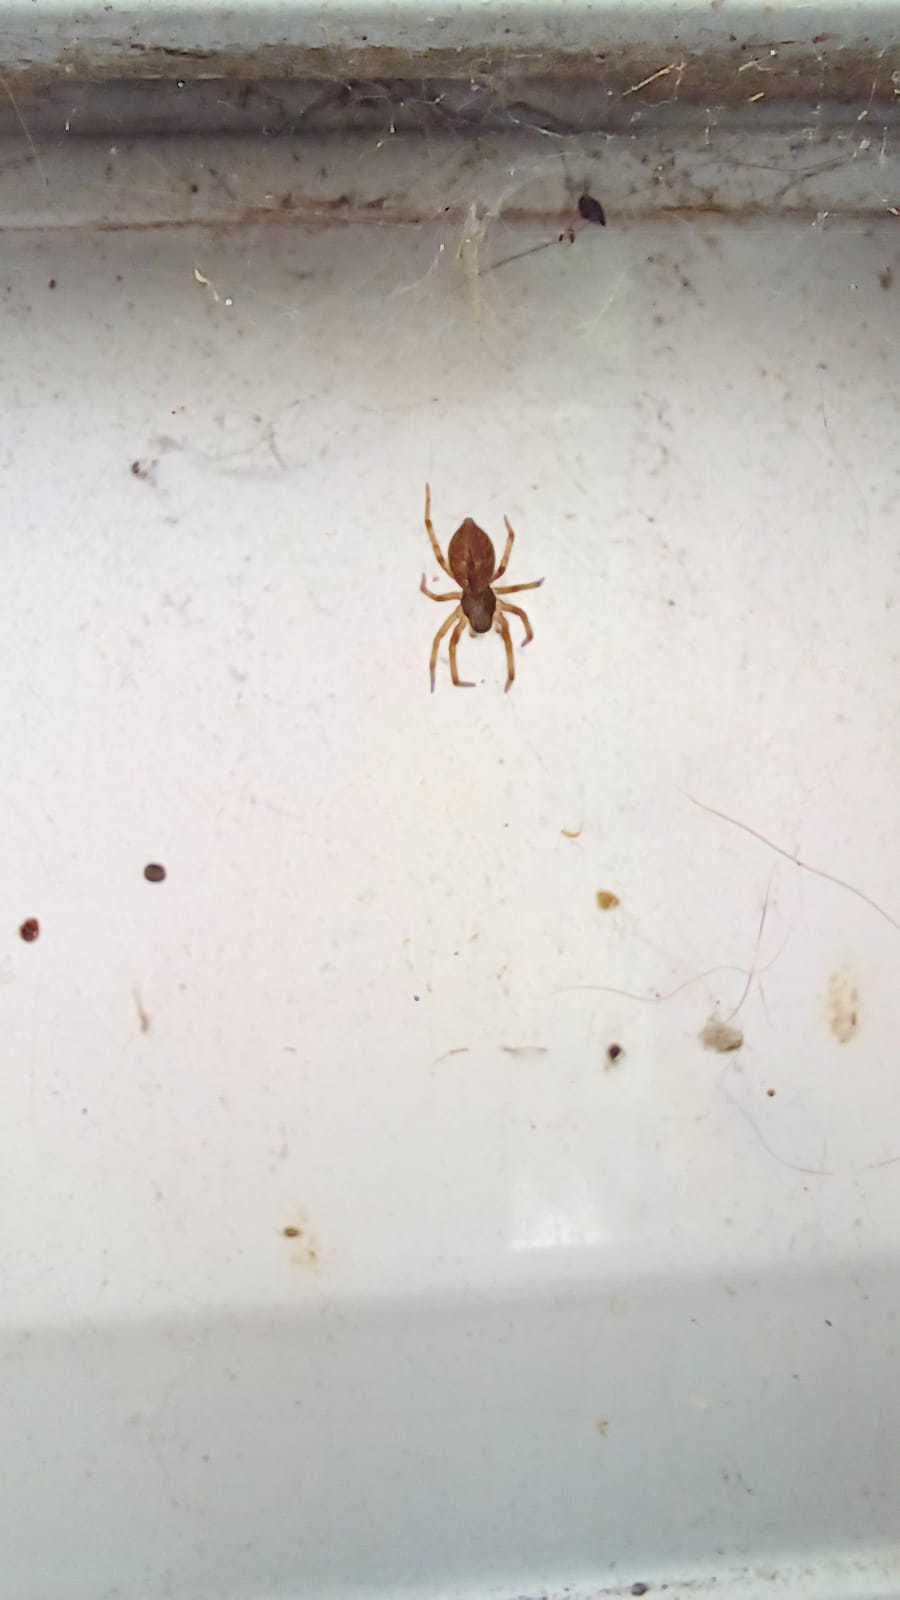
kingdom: Animalia
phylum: Arthropoda
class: Arachnida
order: Araneae
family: Desidae
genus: Badumna
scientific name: Badumna longinqua
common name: Gray house spider
